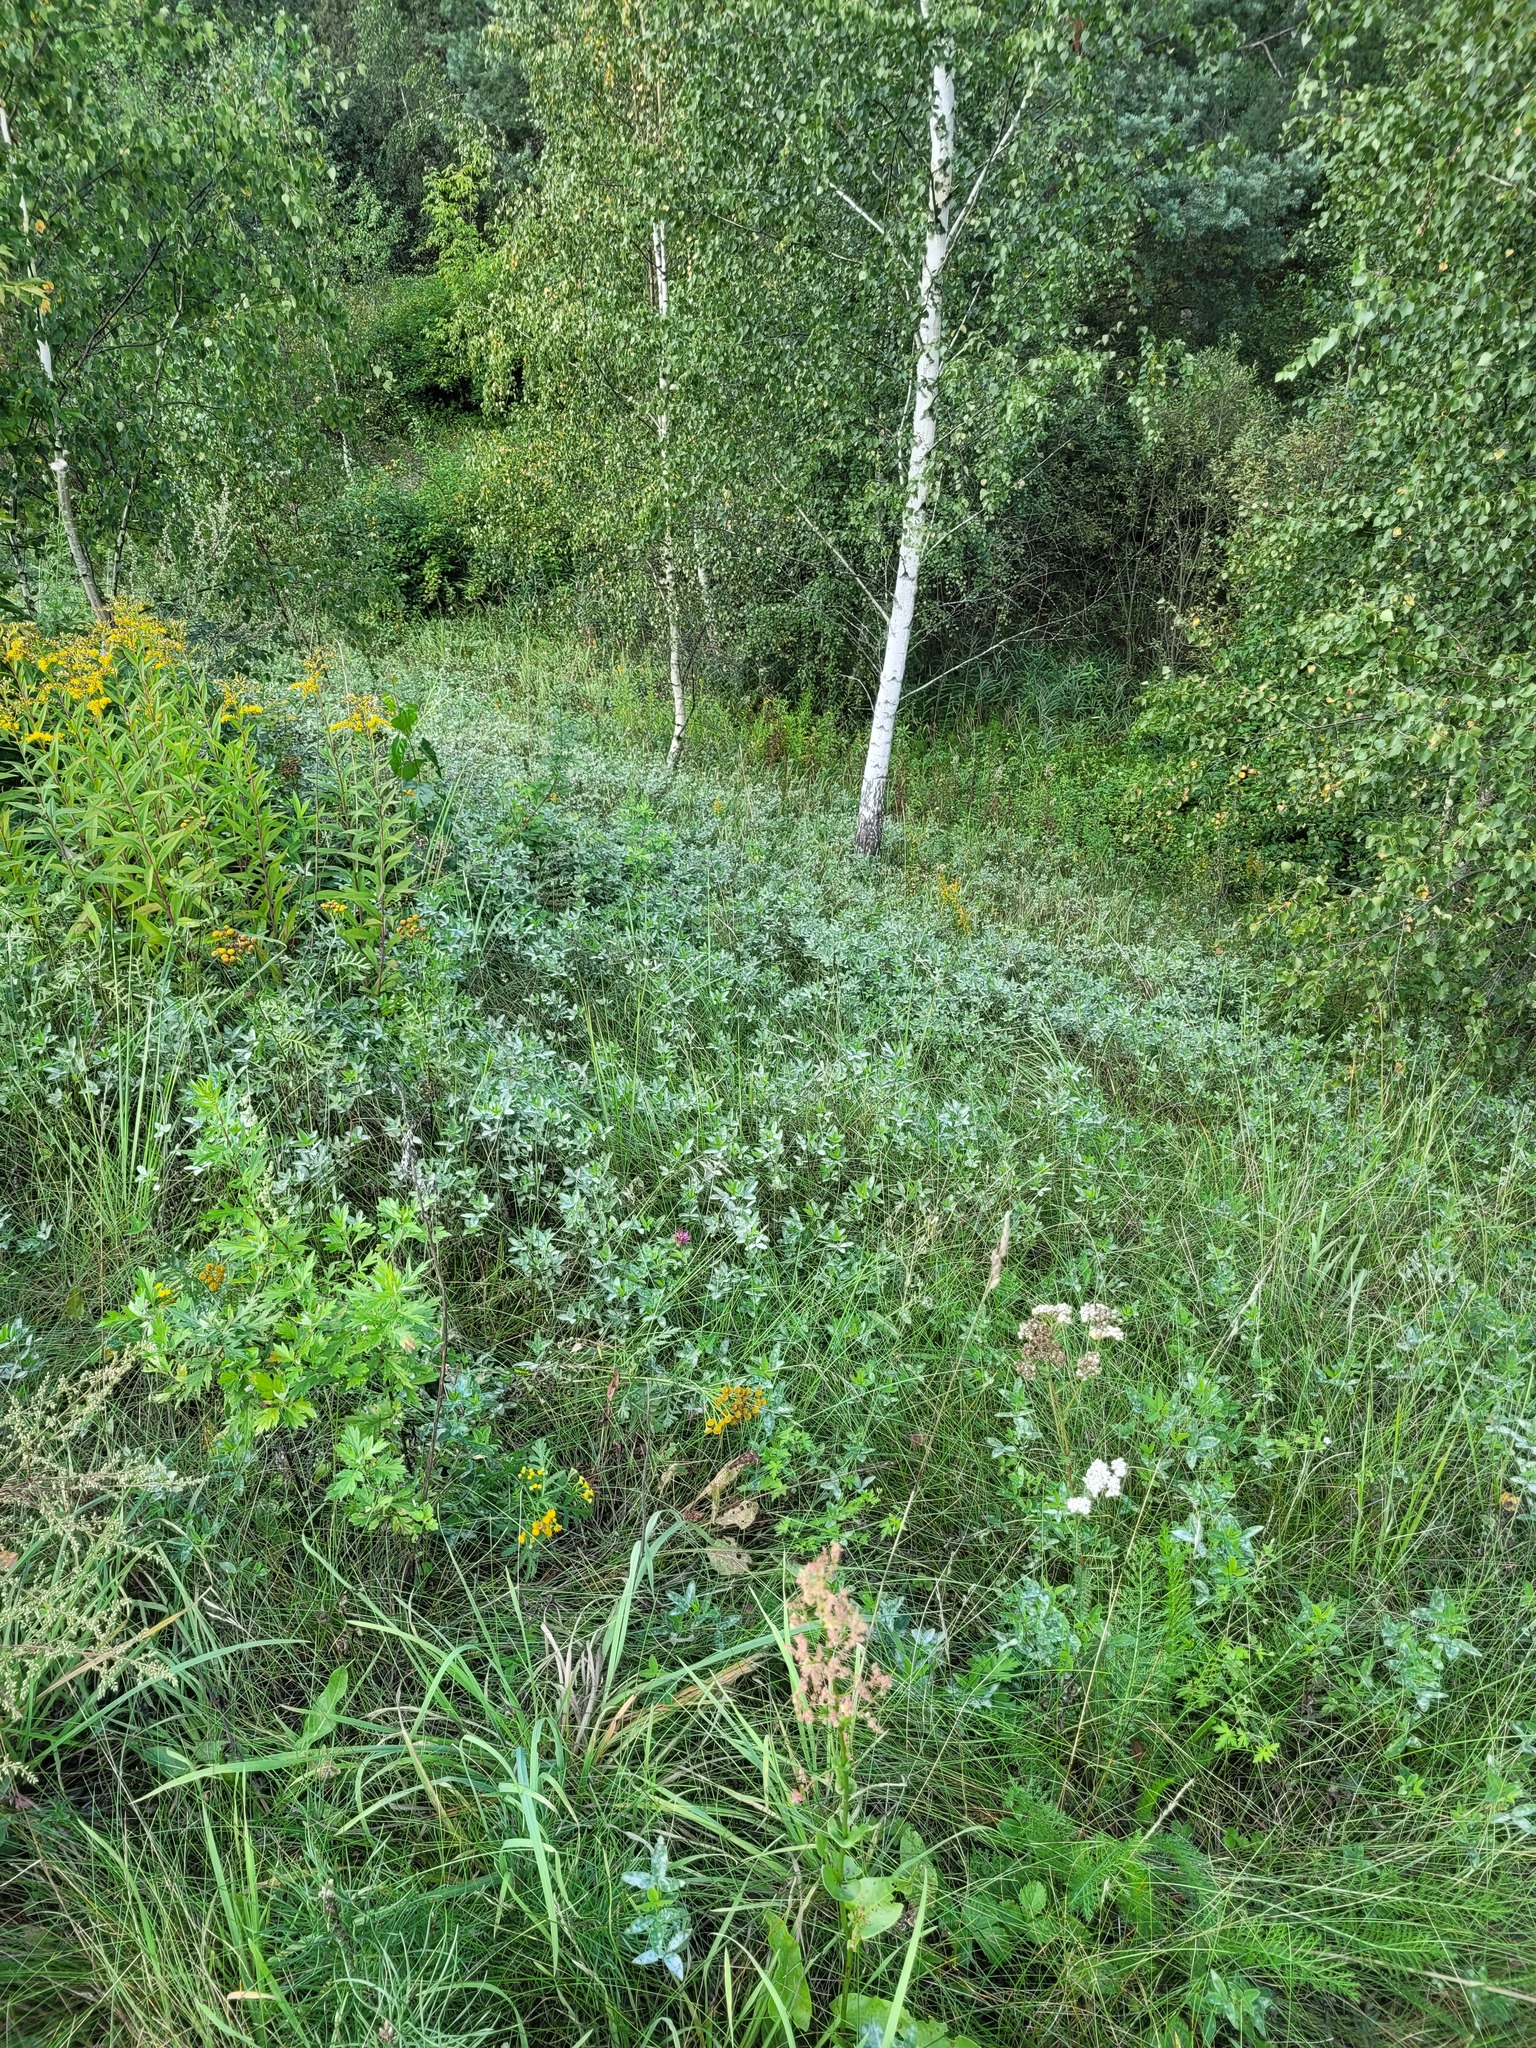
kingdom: Plantae
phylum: Tracheophyta
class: Magnoliopsida
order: Fabales
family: Fabaceae
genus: Trifolium
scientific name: Trifolium medium
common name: Zigzag clover
